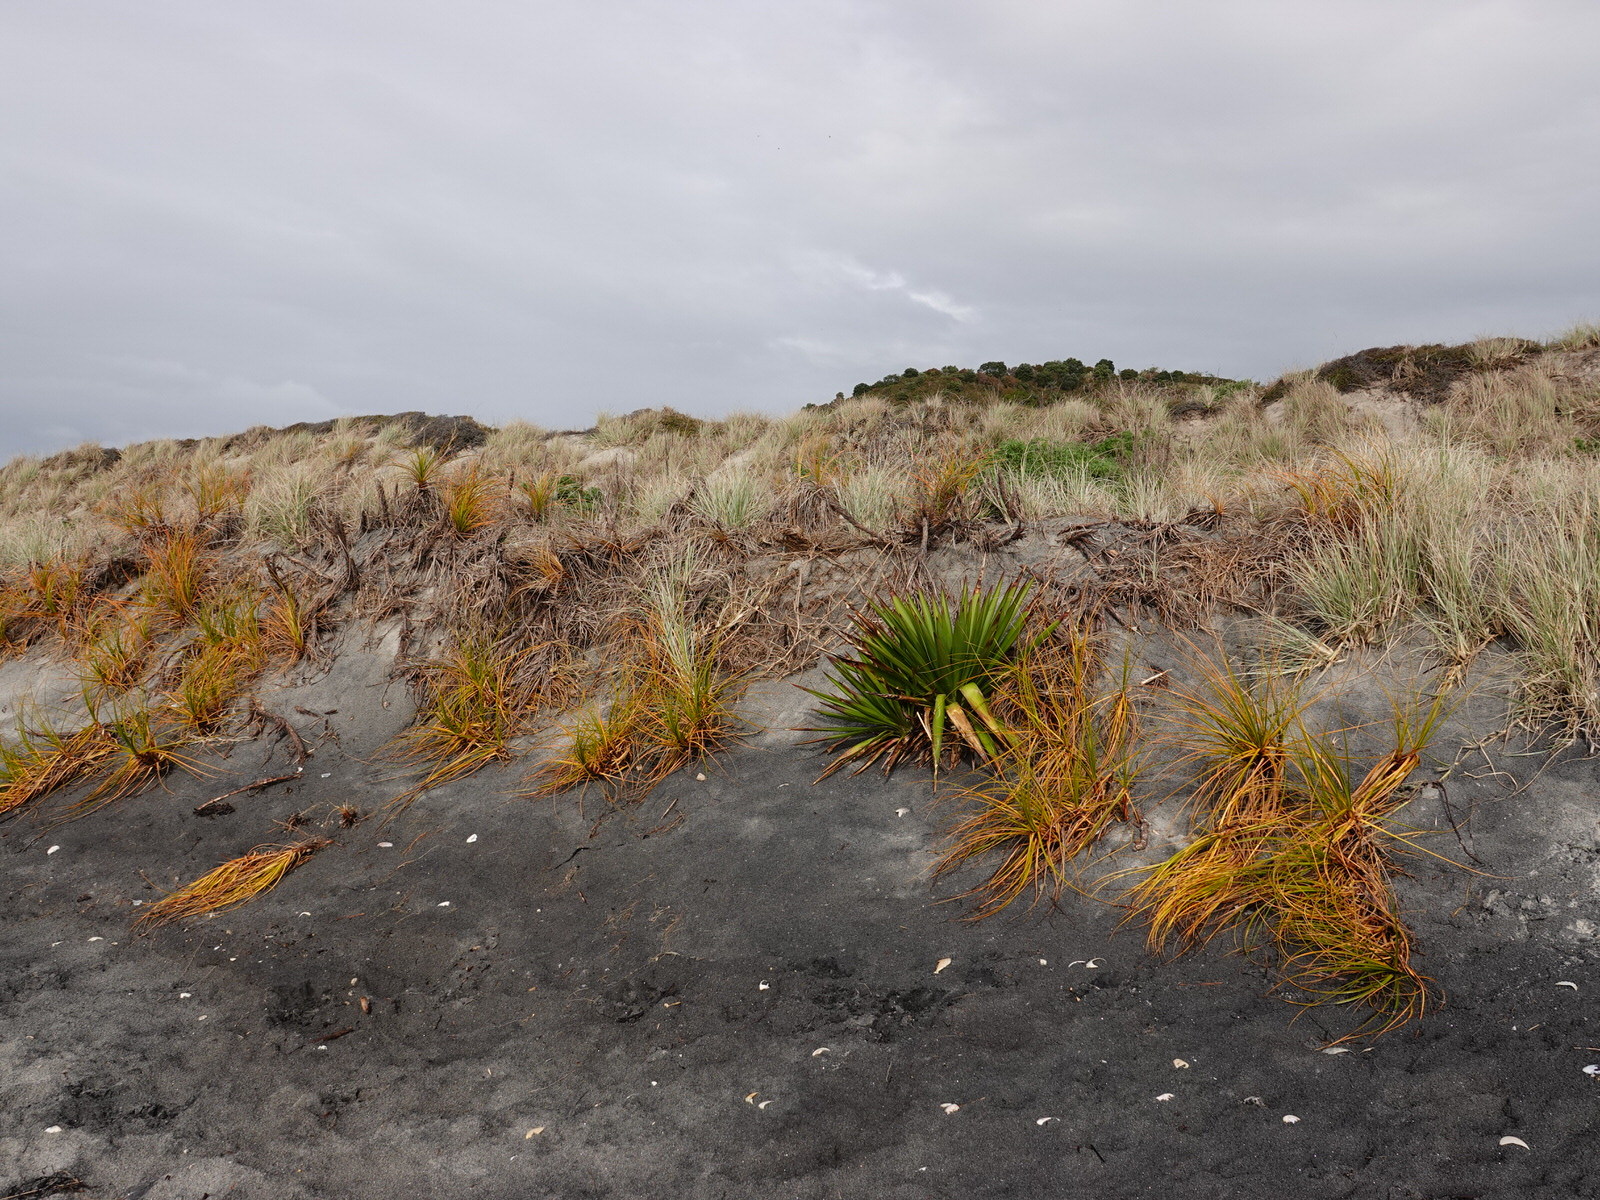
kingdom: Plantae
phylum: Tracheophyta
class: Liliopsida
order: Asparagales
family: Asparagaceae
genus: Yucca
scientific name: Yucca gloriosa
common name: Spanish-dagger
